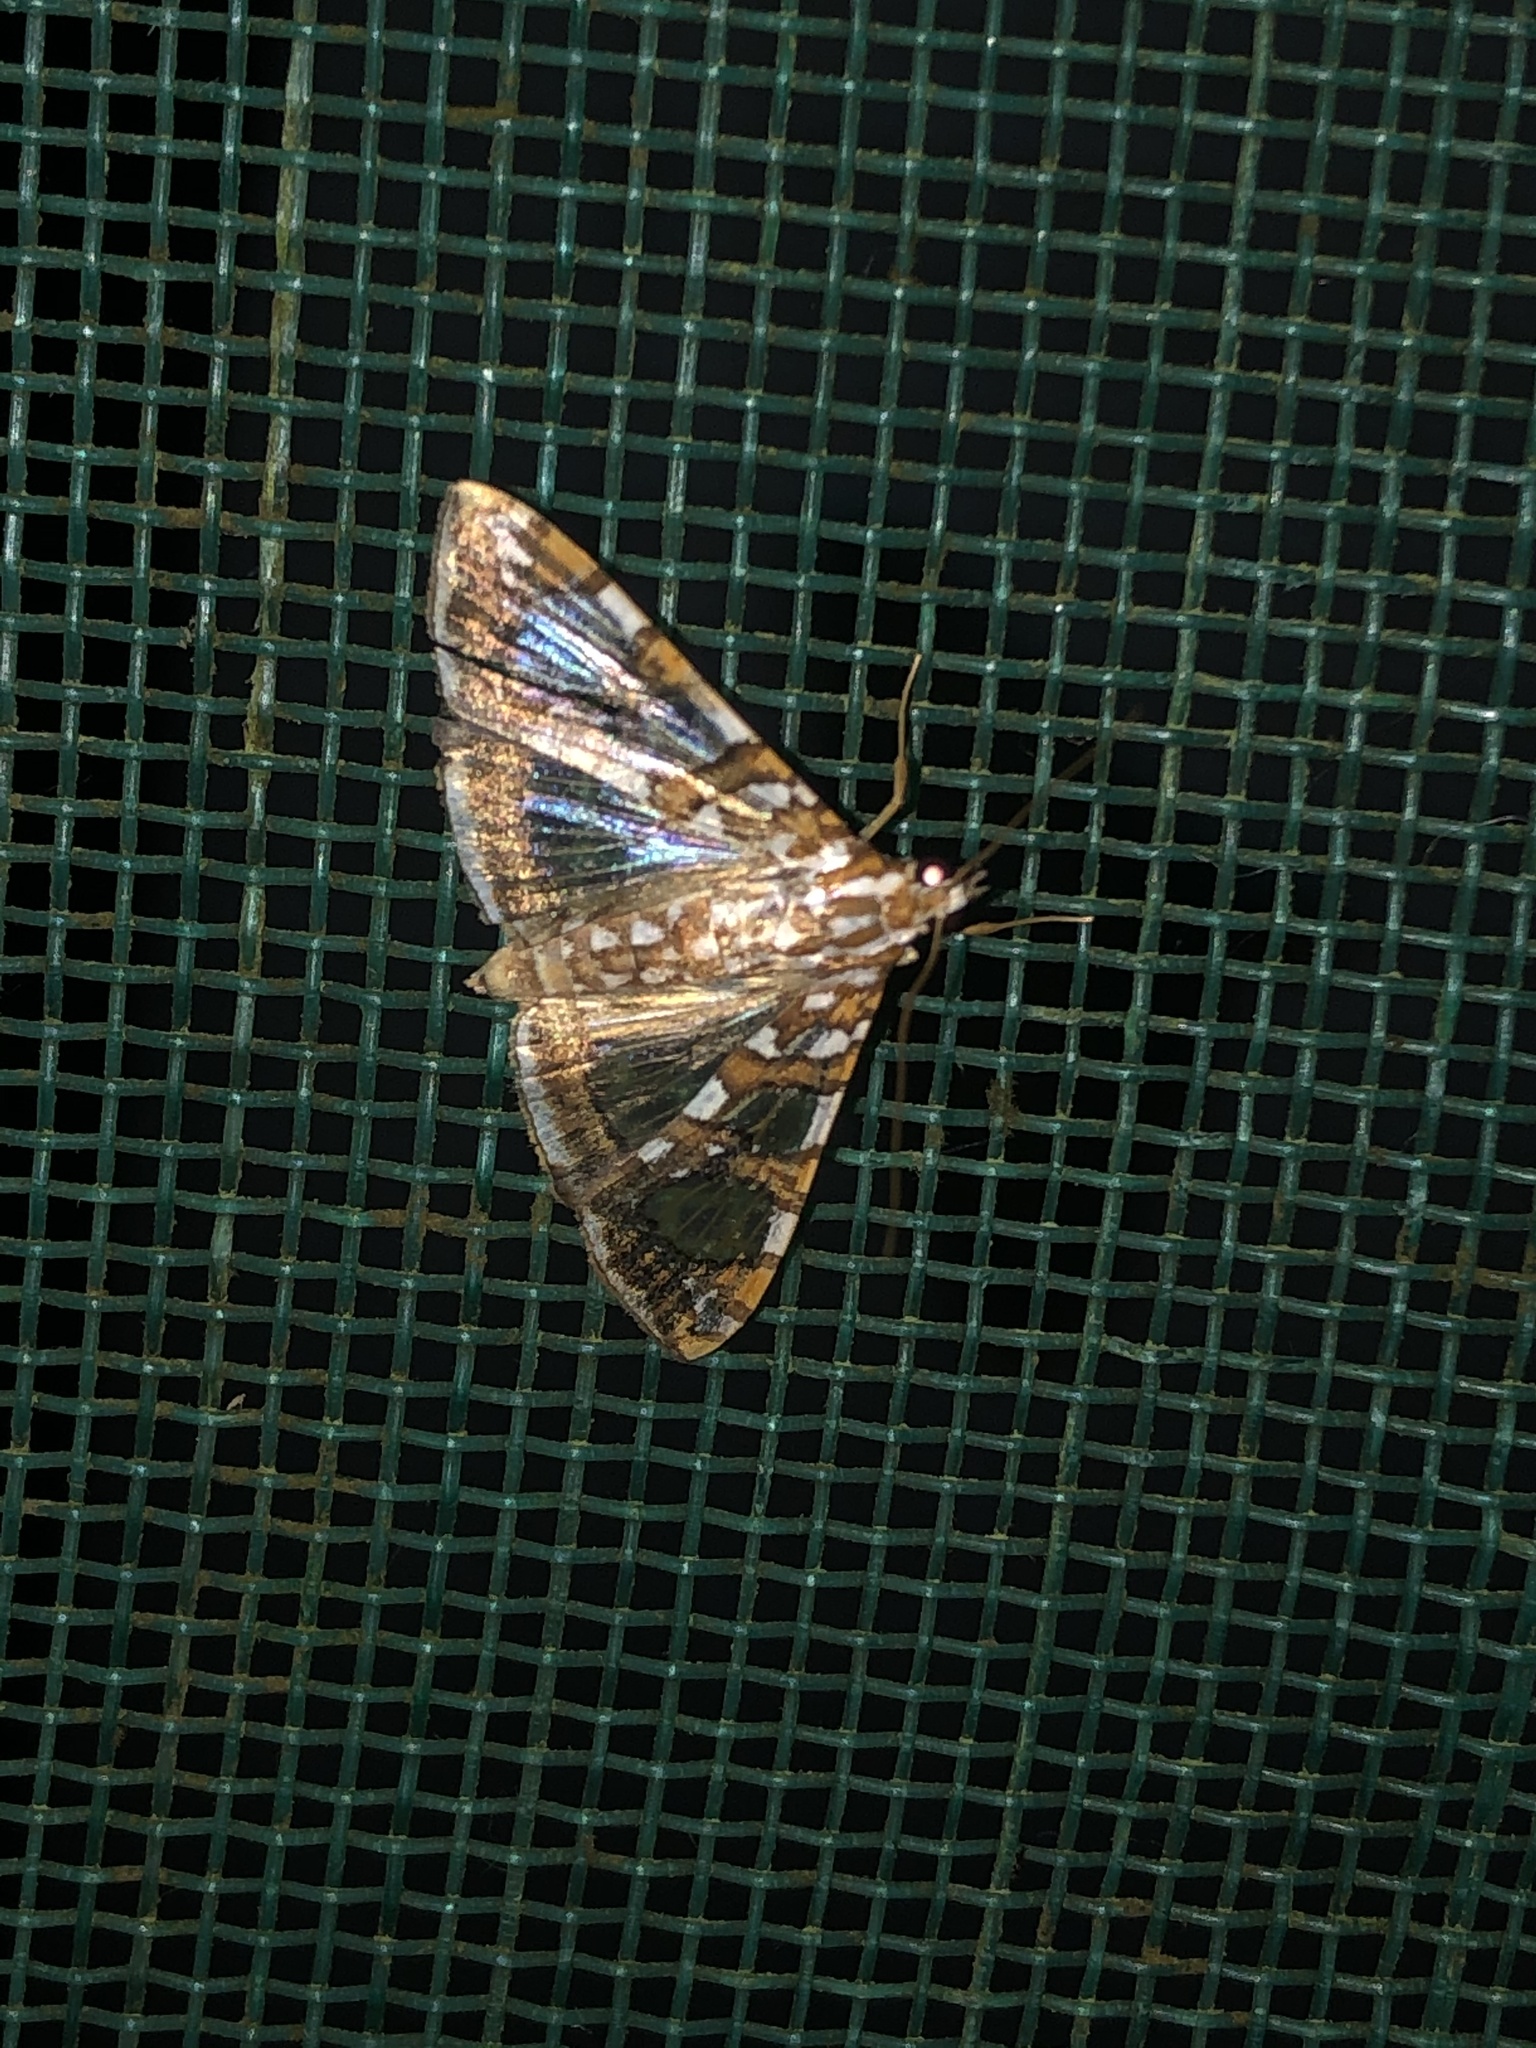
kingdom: Animalia
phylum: Arthropoda
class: Insecta
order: Lepidoptera
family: Crambidae
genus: Glyphodes
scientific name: Glyphodes sibillalis
